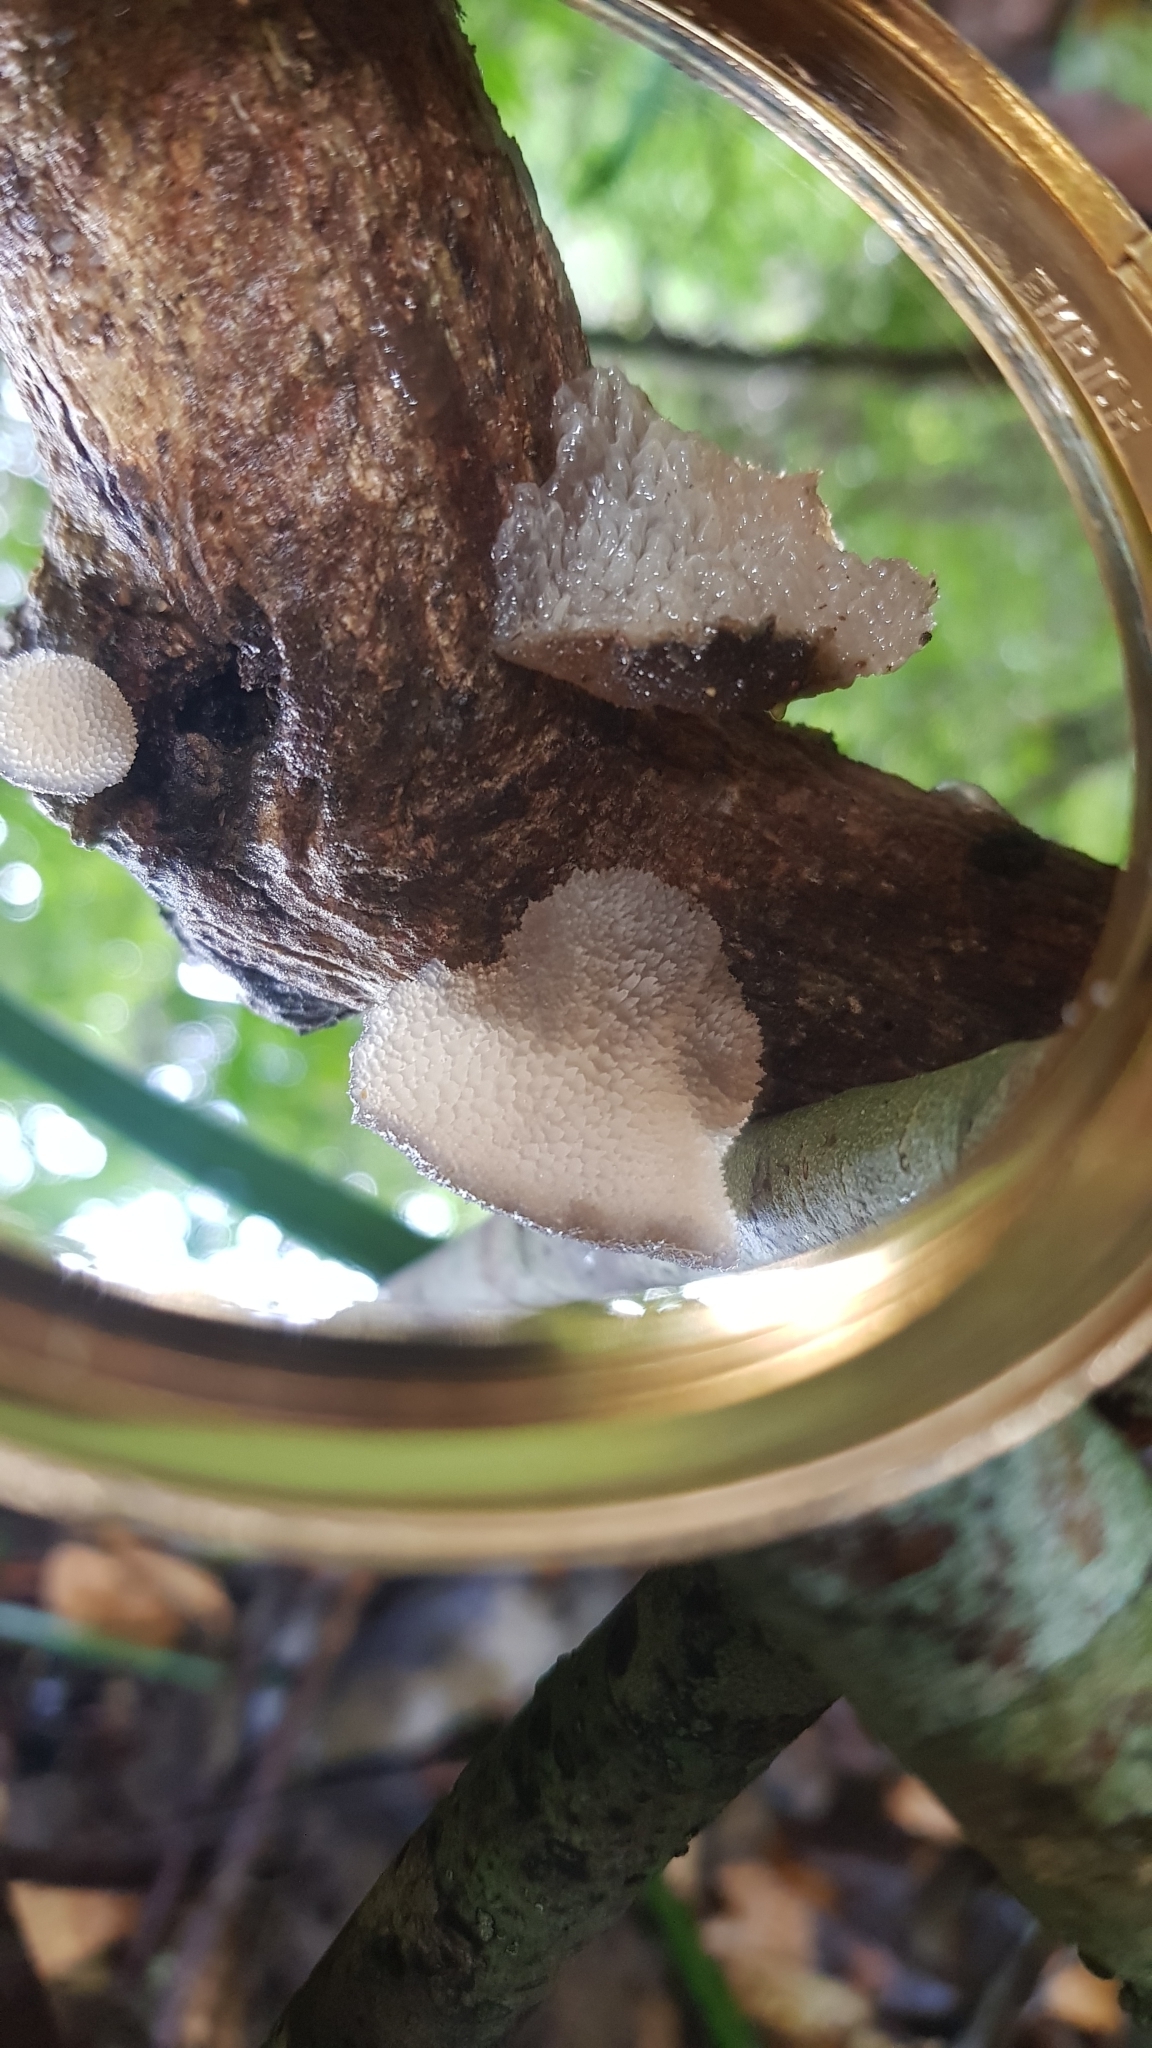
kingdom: Fungi
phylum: Basidiomycota
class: Agaricomycetes
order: Auriculariales
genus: Pseudohydnum
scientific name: Pseudohydnum gelatinosum
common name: Jelly tongue
